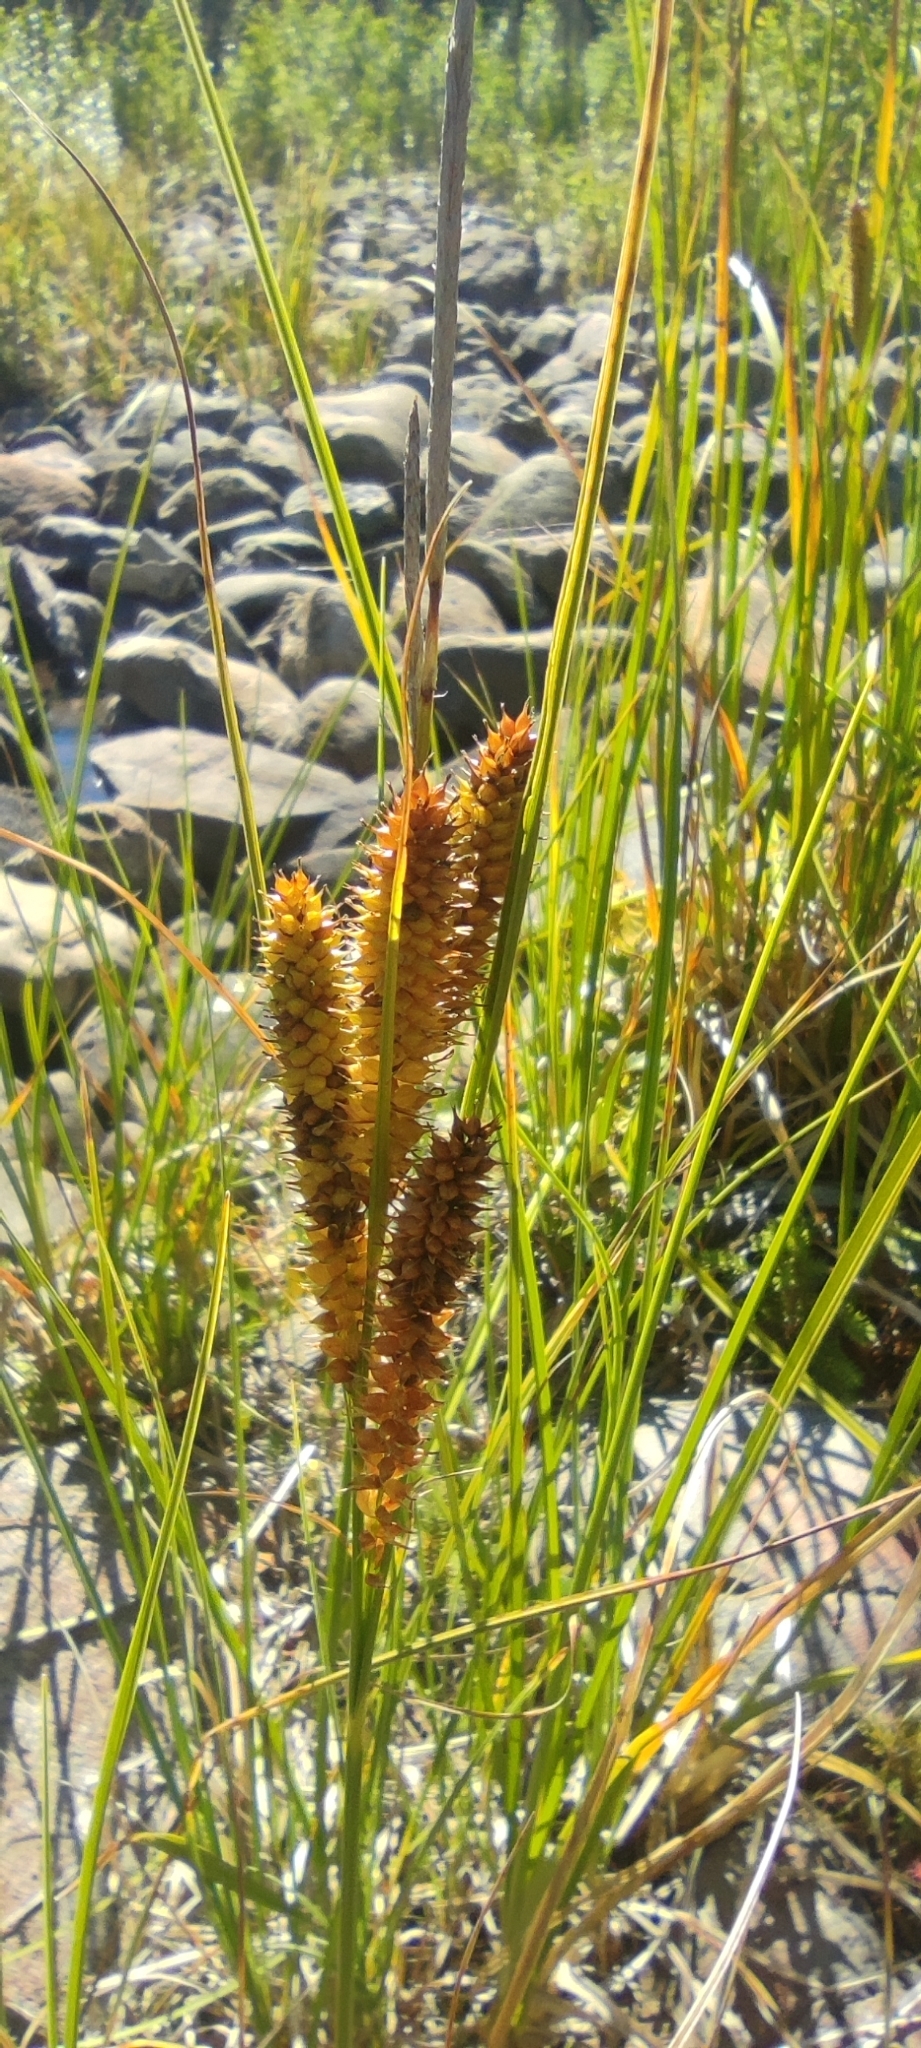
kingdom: Plantae
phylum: Tracheophyta
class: Liliopsida
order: Poales
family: Cyperaceae
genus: Carex
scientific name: Carex utriculata
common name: Beaked sedge
